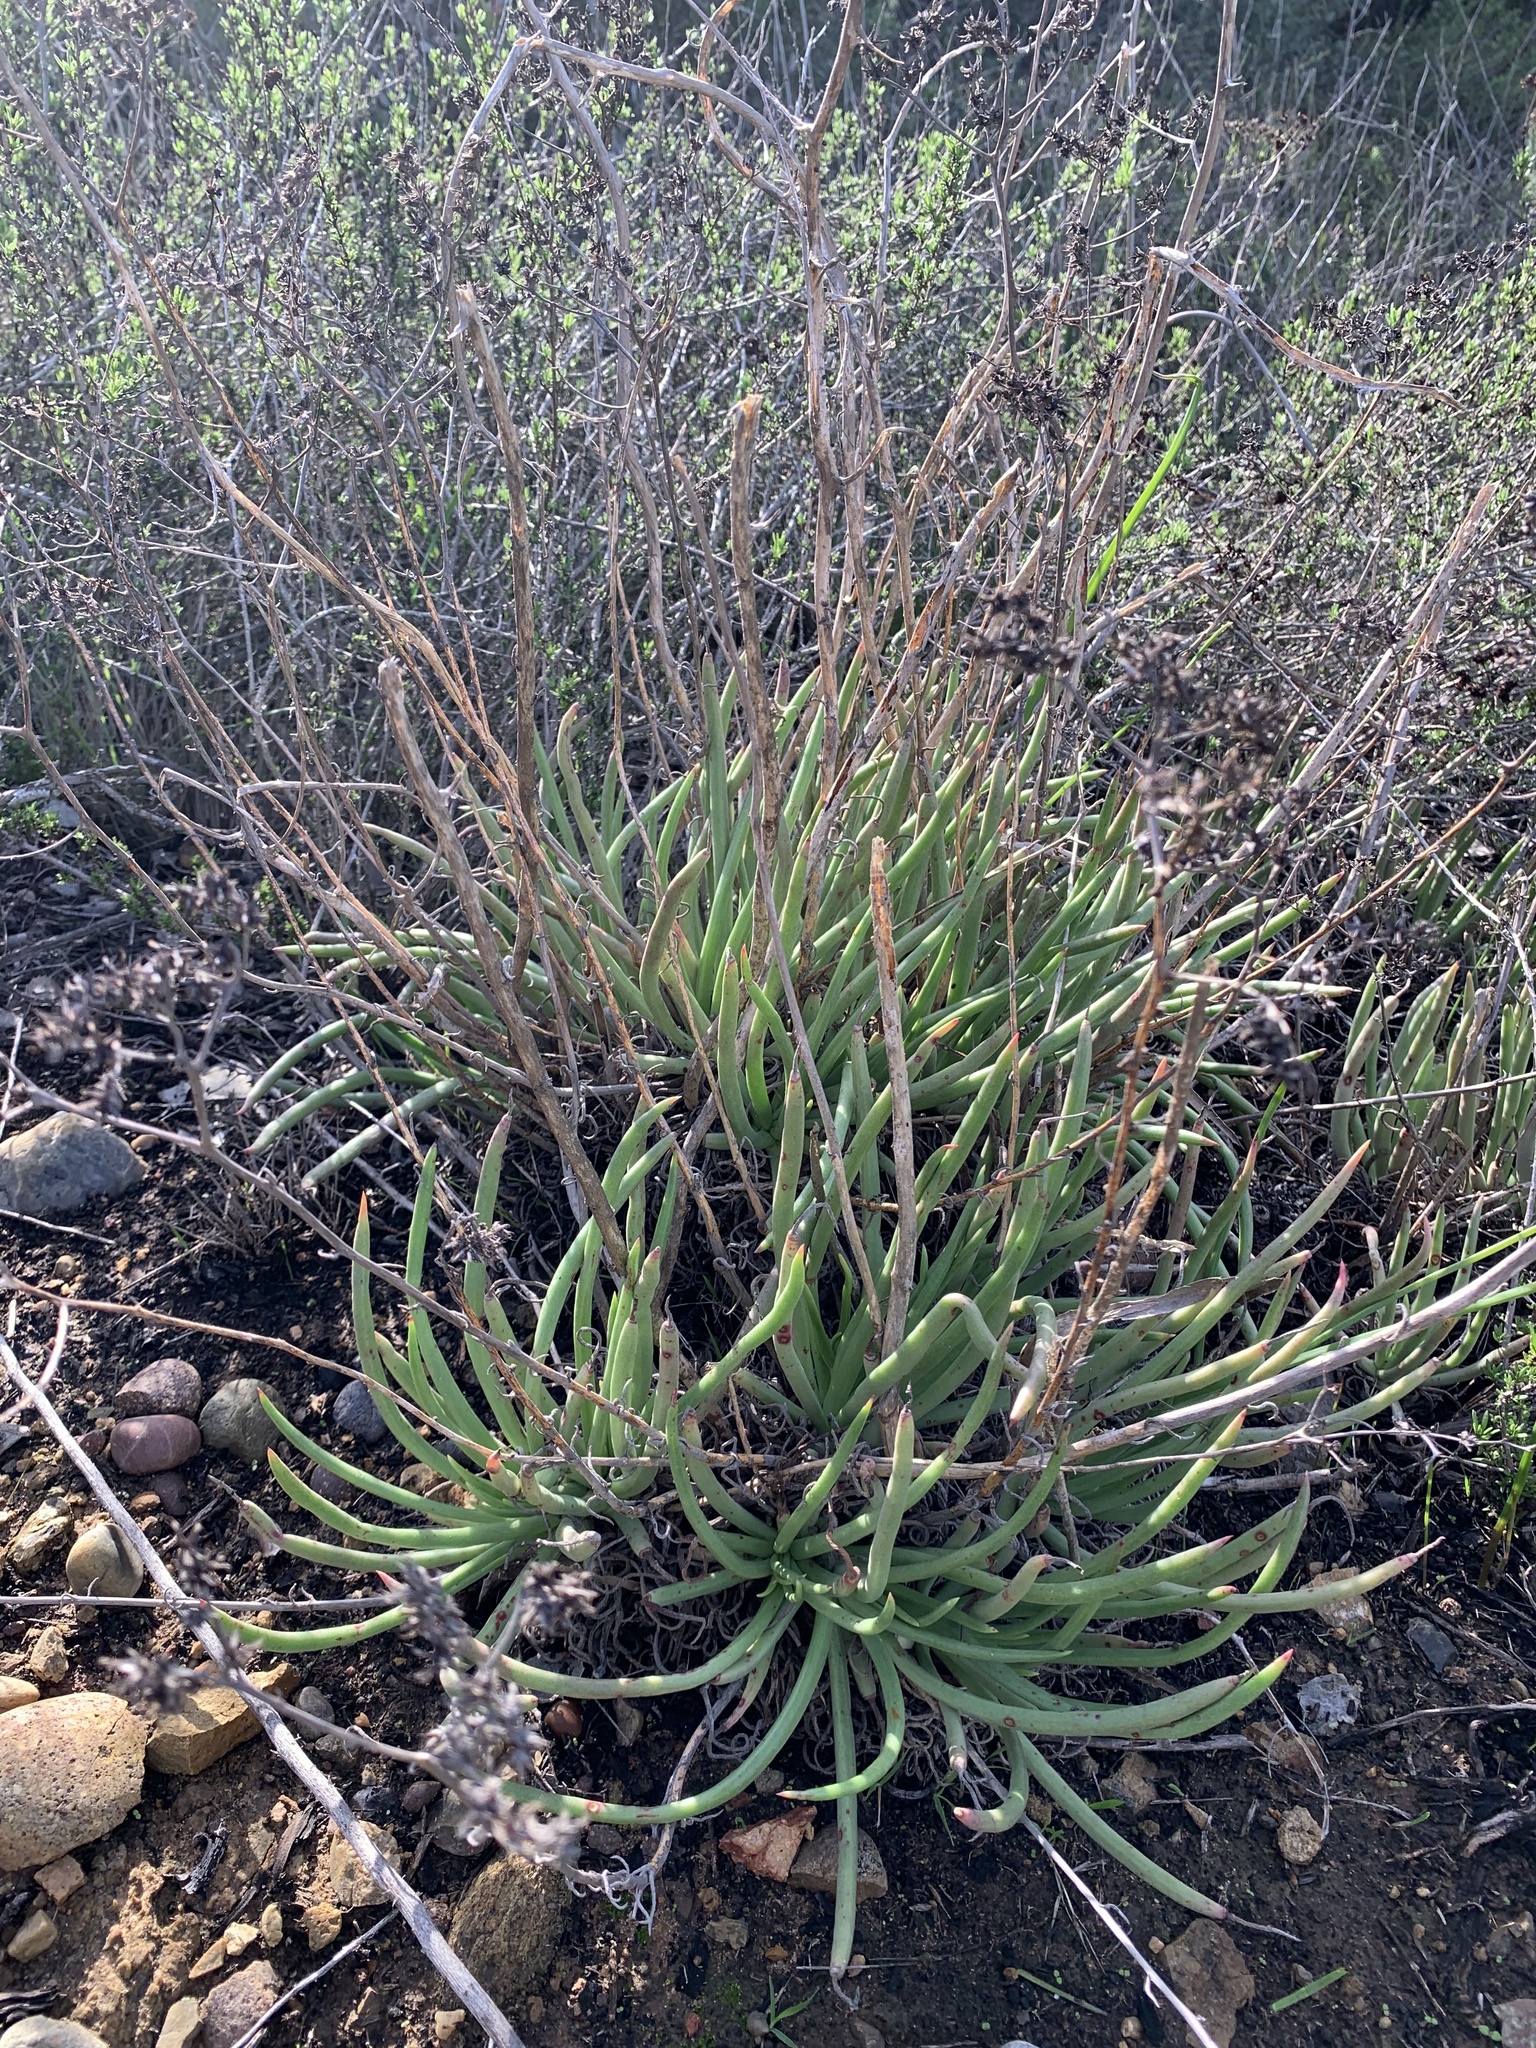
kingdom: Plantae
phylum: Tracheophyta
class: Magnoliopsida
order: Saxifragales
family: Crassulaceae
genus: Dudleya
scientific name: Dudleya edulis
